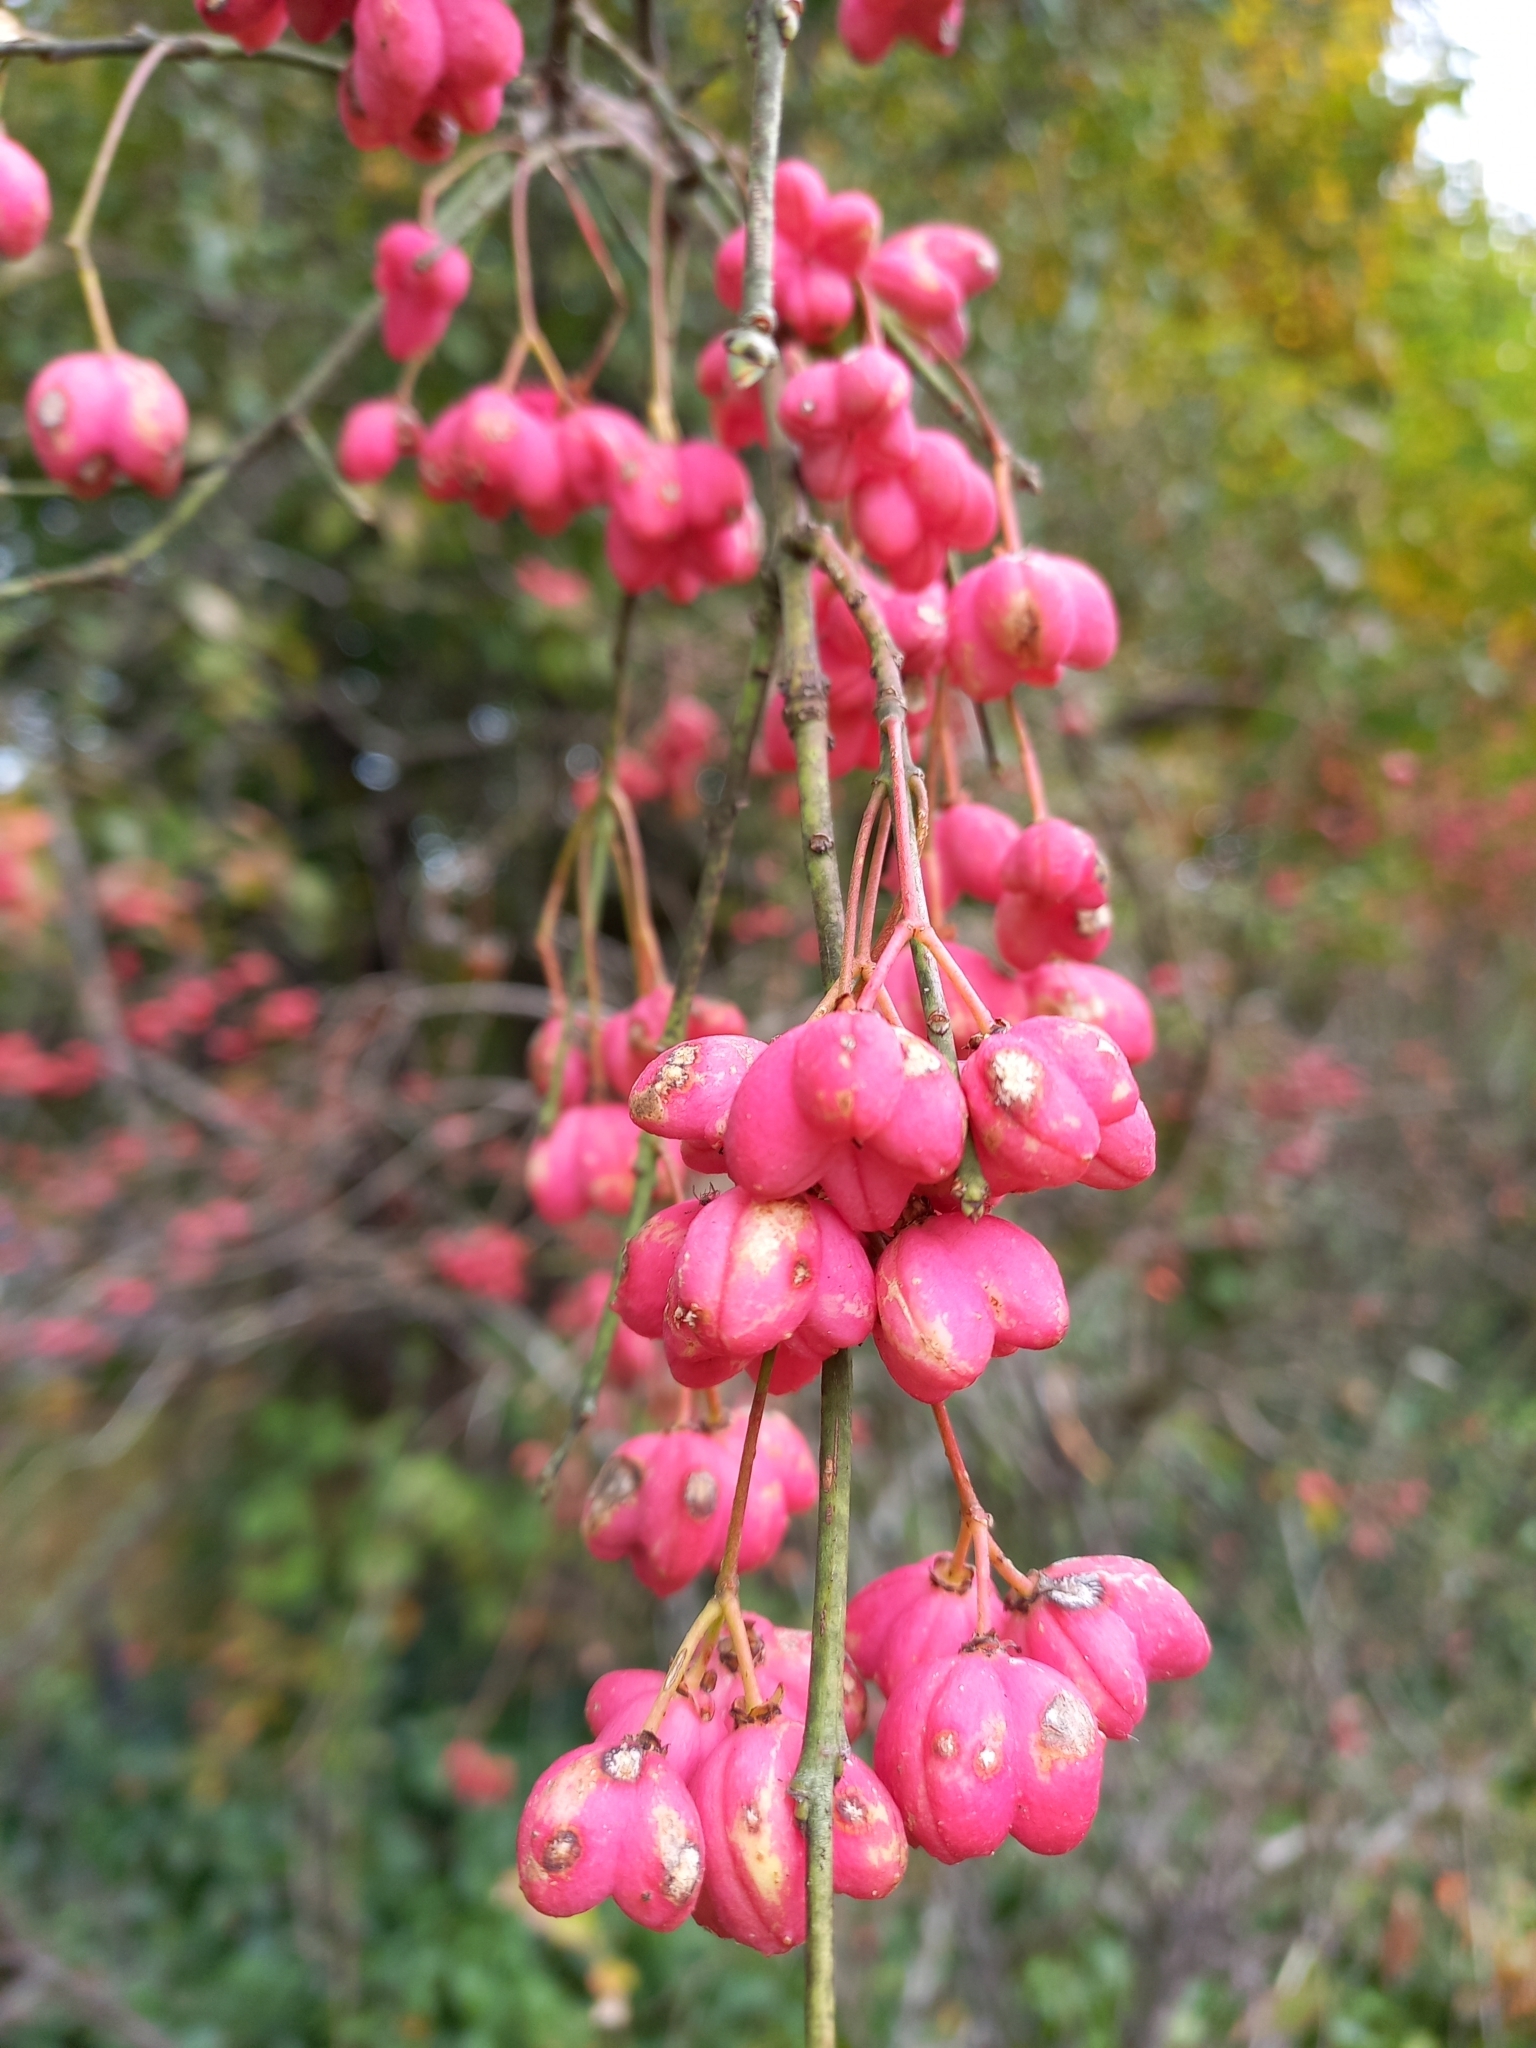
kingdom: Plantae
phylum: Tracheophyta
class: Magnoliopsida
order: Celastrales
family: Celastraceae
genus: Euonymus
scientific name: Euonymus europaeus
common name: Spindle
